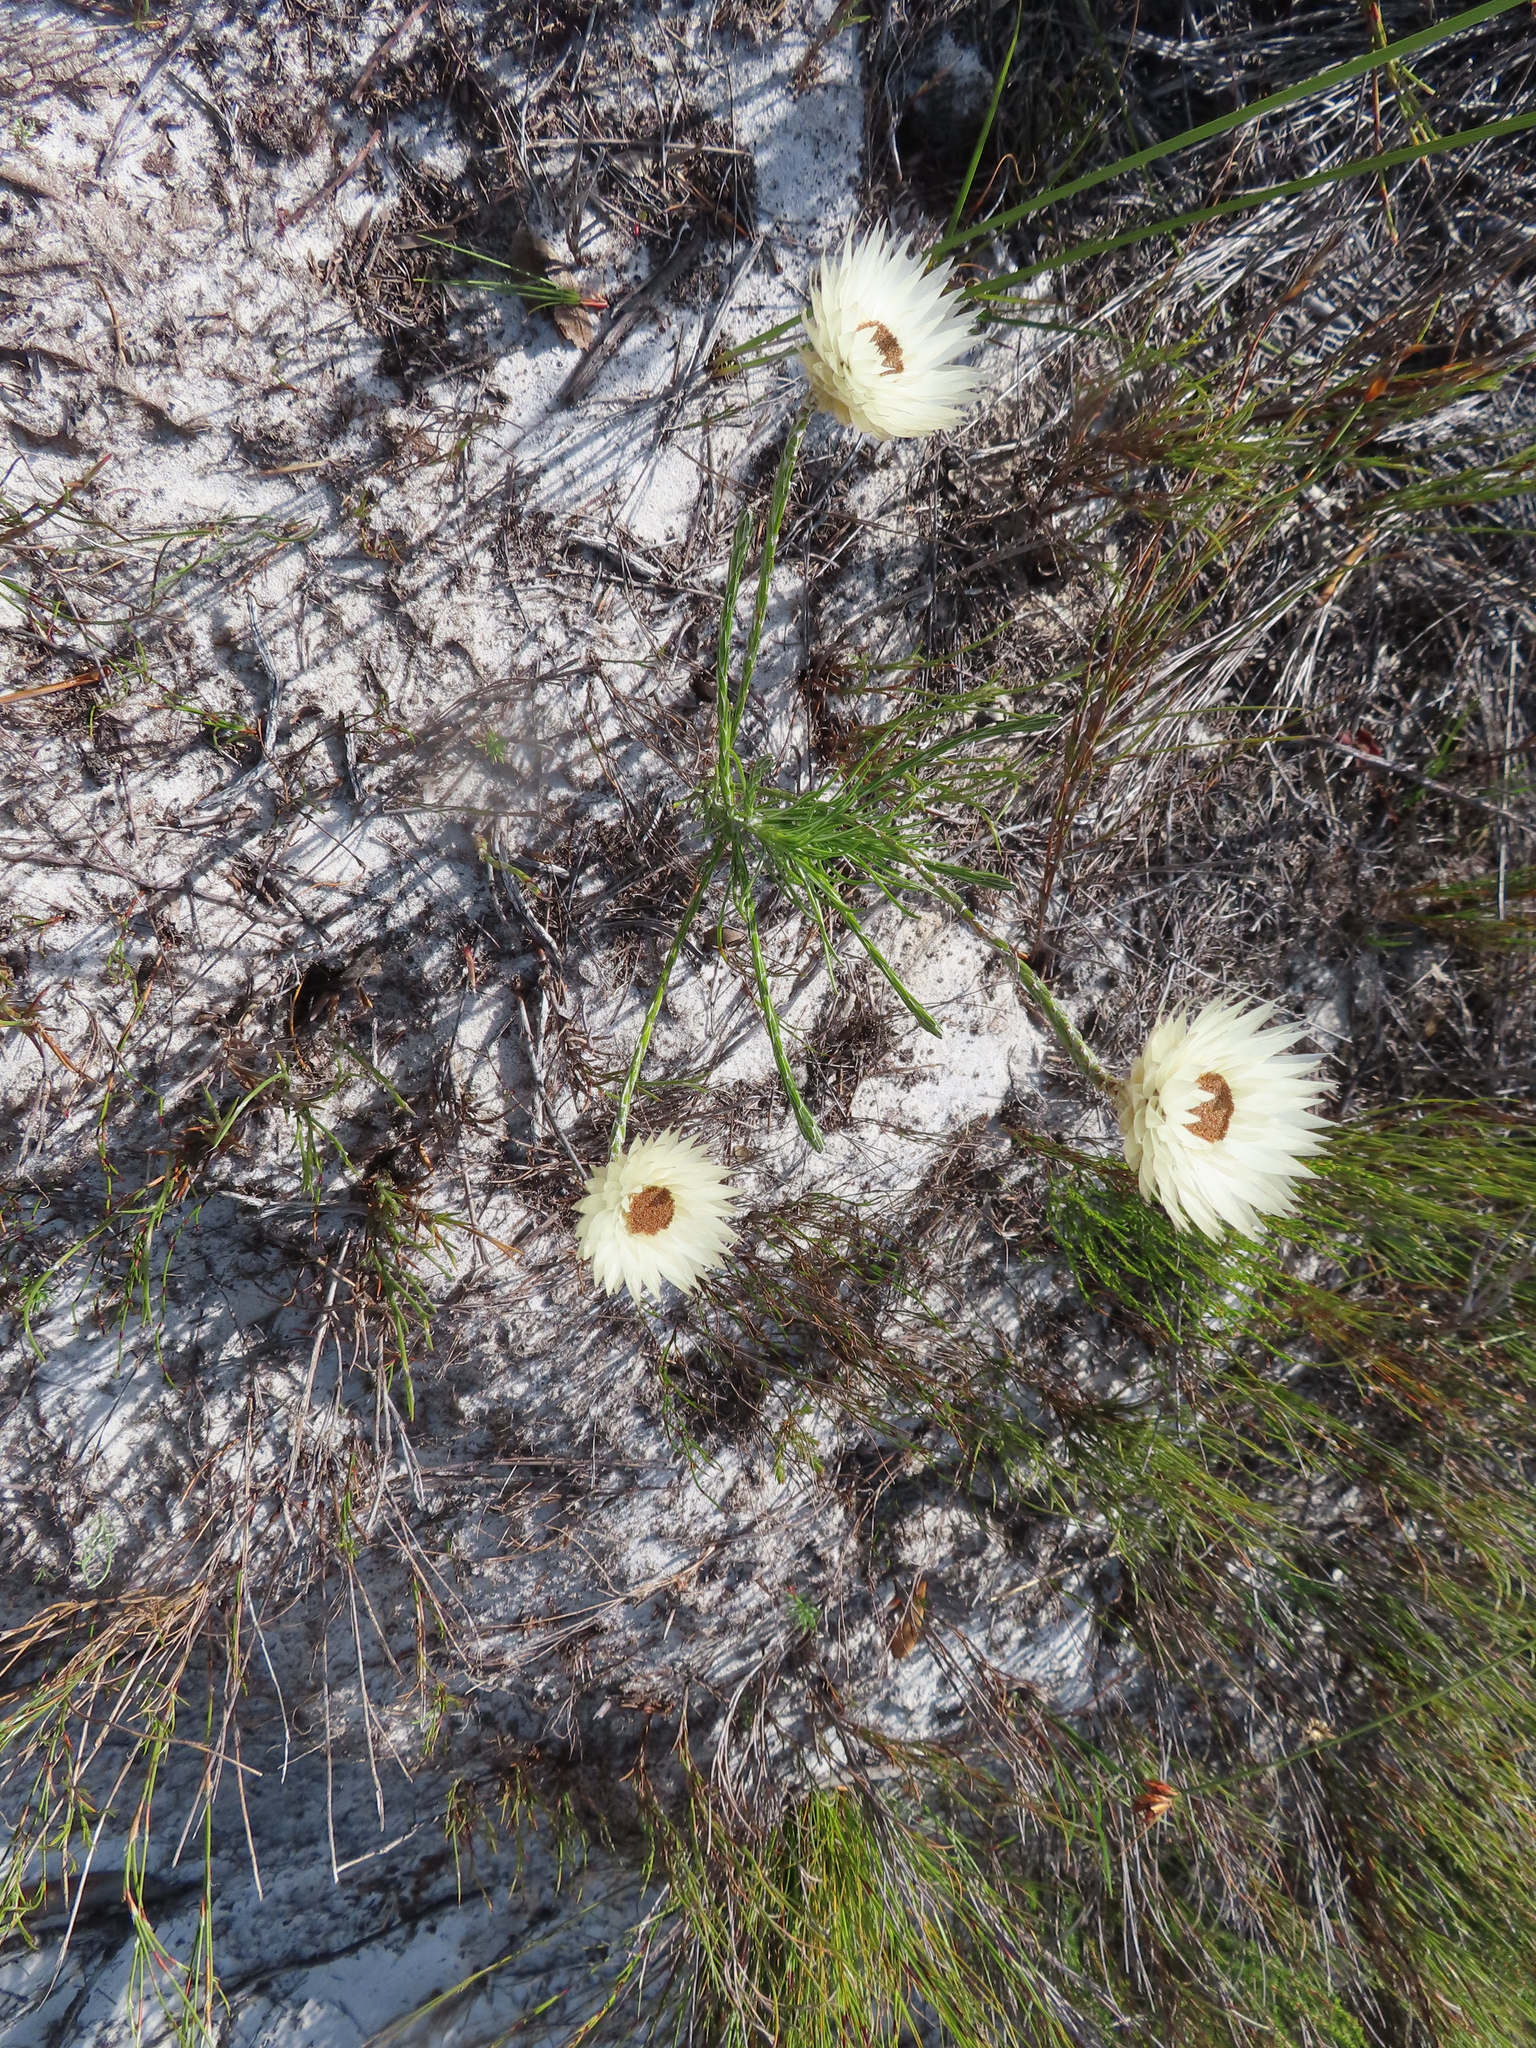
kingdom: Plantae
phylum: Tracheophyta
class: Magnoliopsida
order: Asterales
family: Asteraceae
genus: Edmondia
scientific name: Edmondia sesamoides
